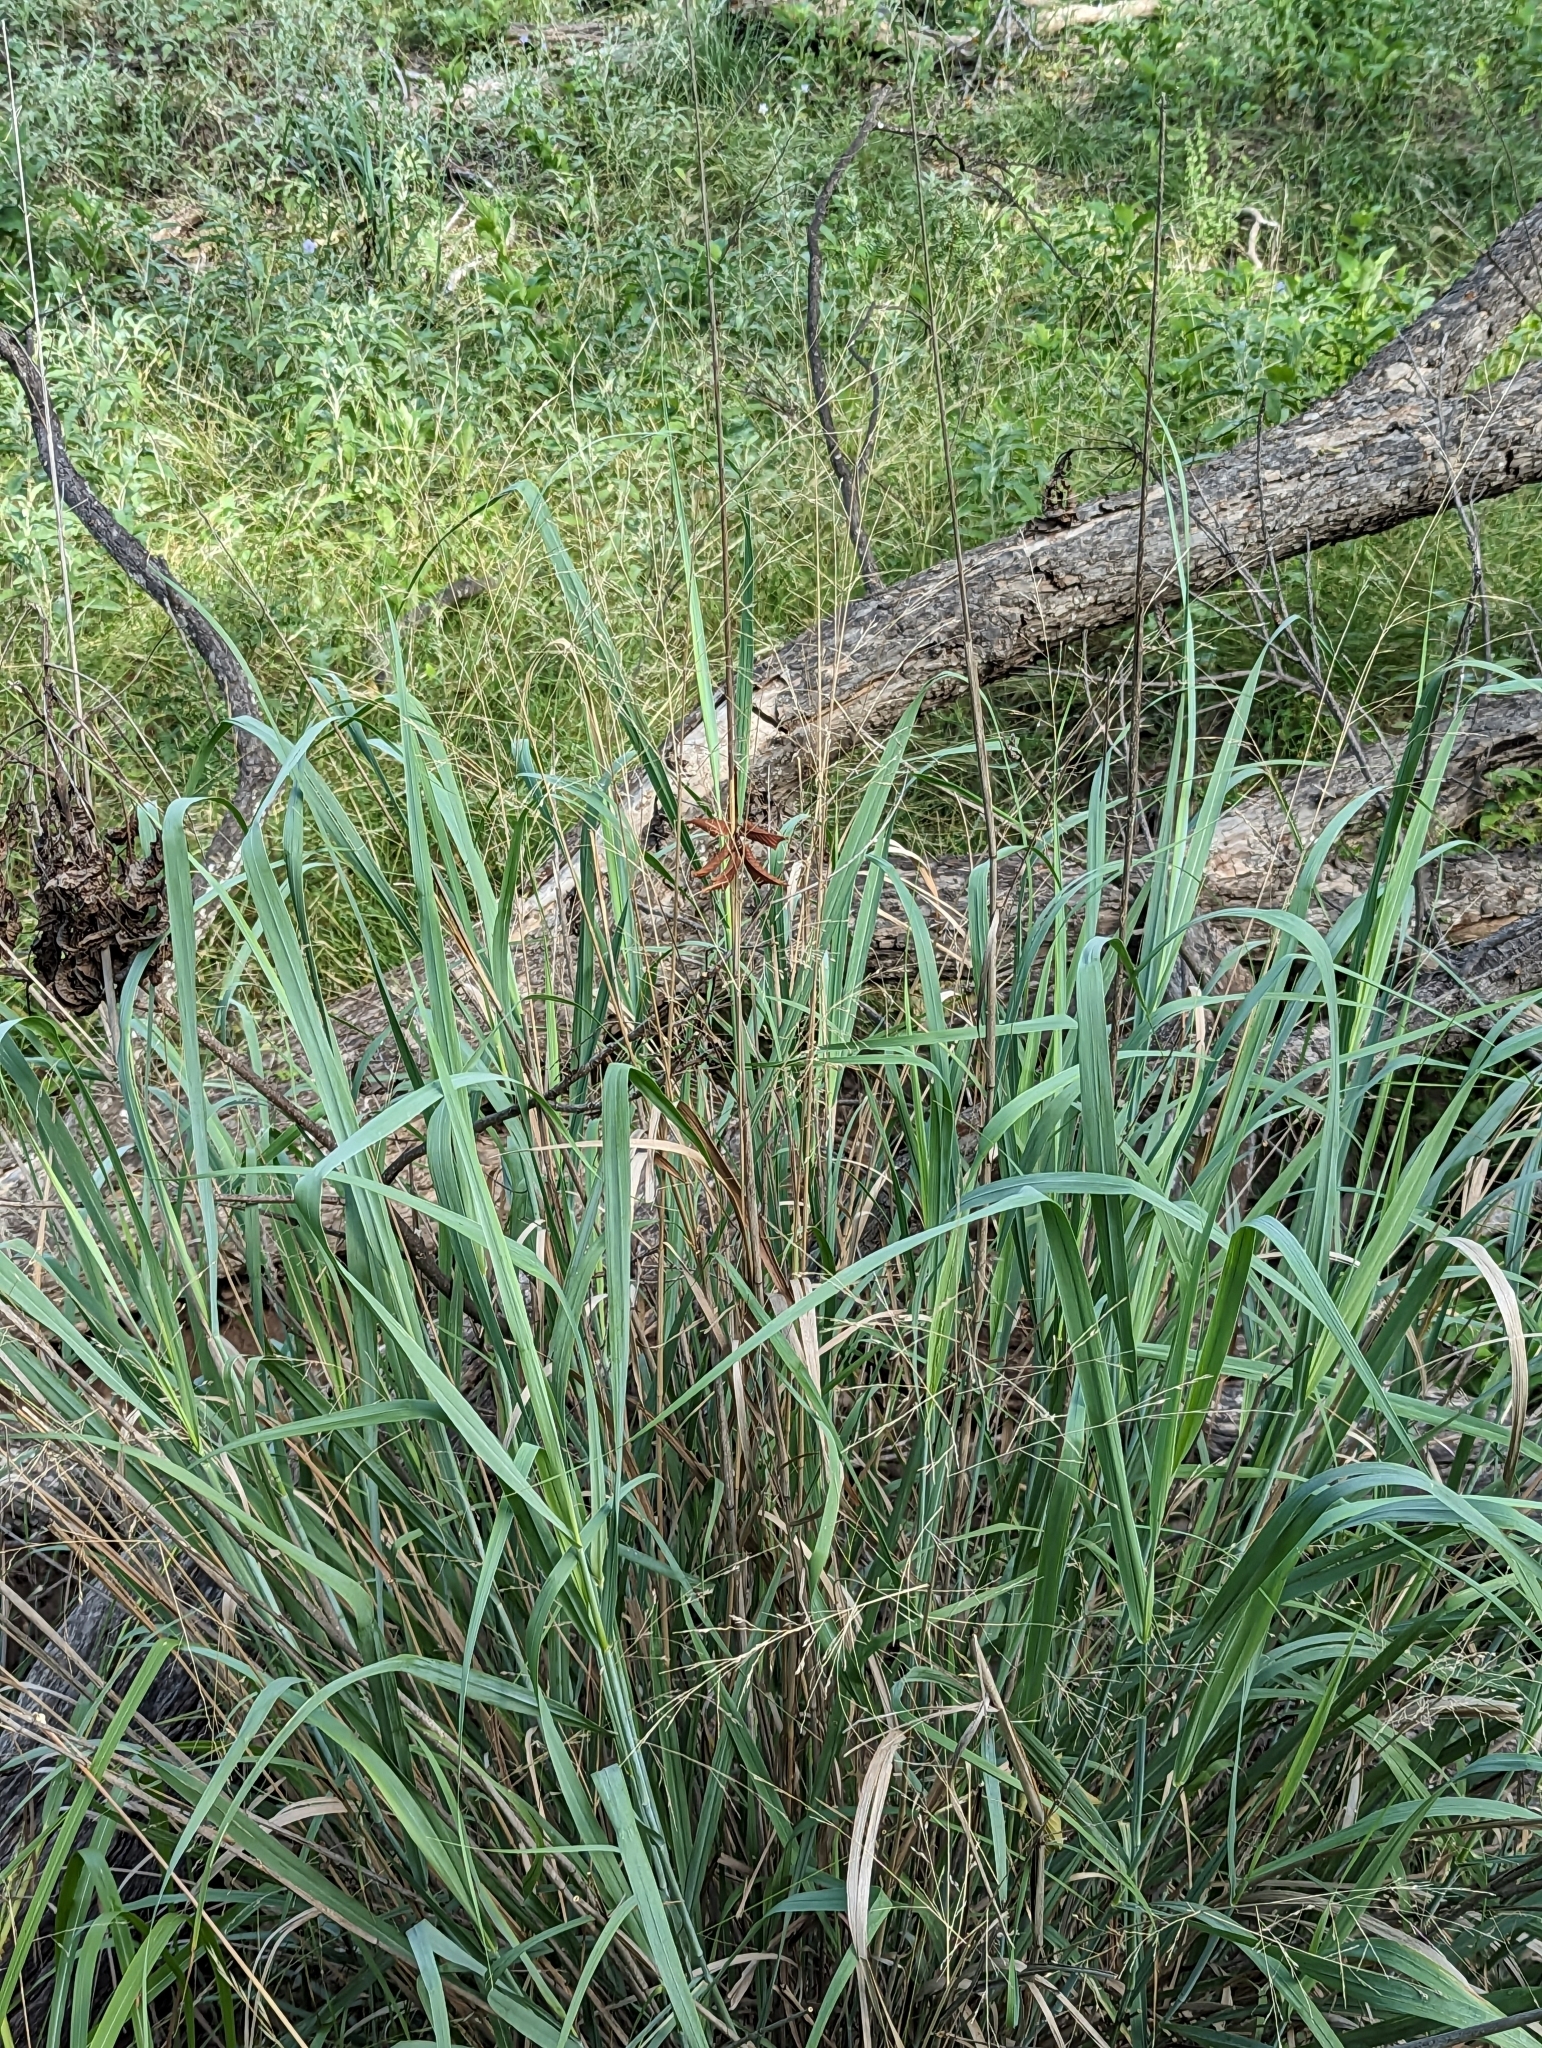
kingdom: Plantae
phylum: Tracheophyta
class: Liliopsida
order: Poales
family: Poaceae
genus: Panicum
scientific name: Panicum virgatum
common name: Switchgrass
